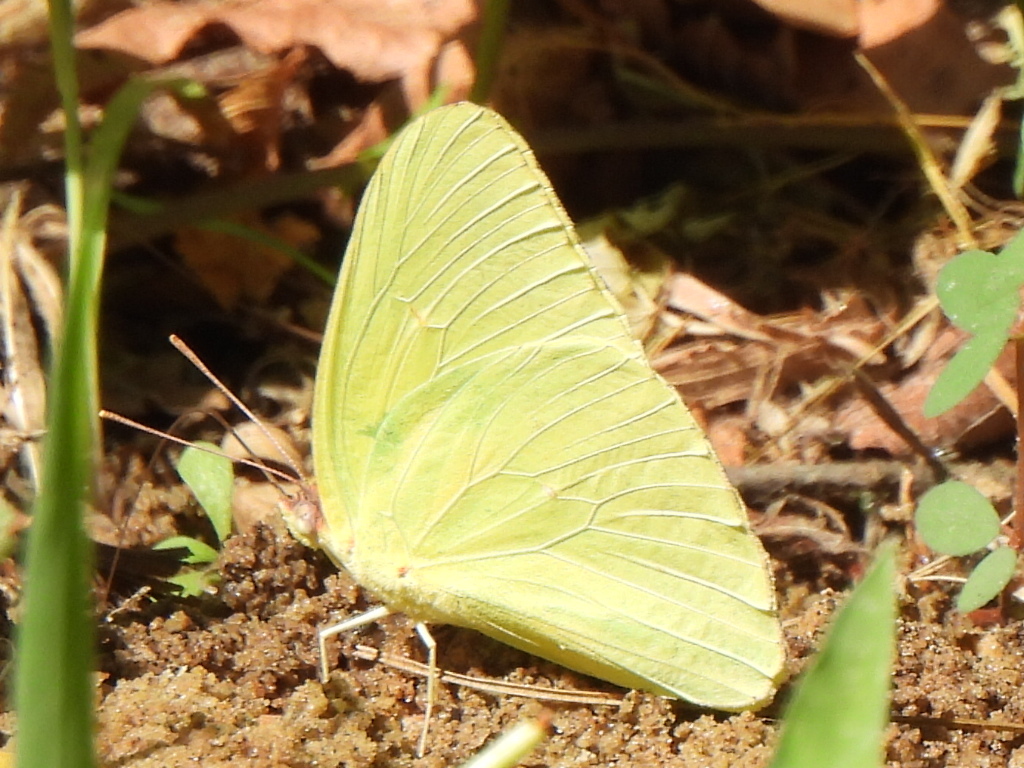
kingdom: Animalia
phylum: Arthropoda
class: Insecta
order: Lepidoptera
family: Pieridae
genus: Phoebis
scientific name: Phoebis sennae
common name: Cloudless sulphur
